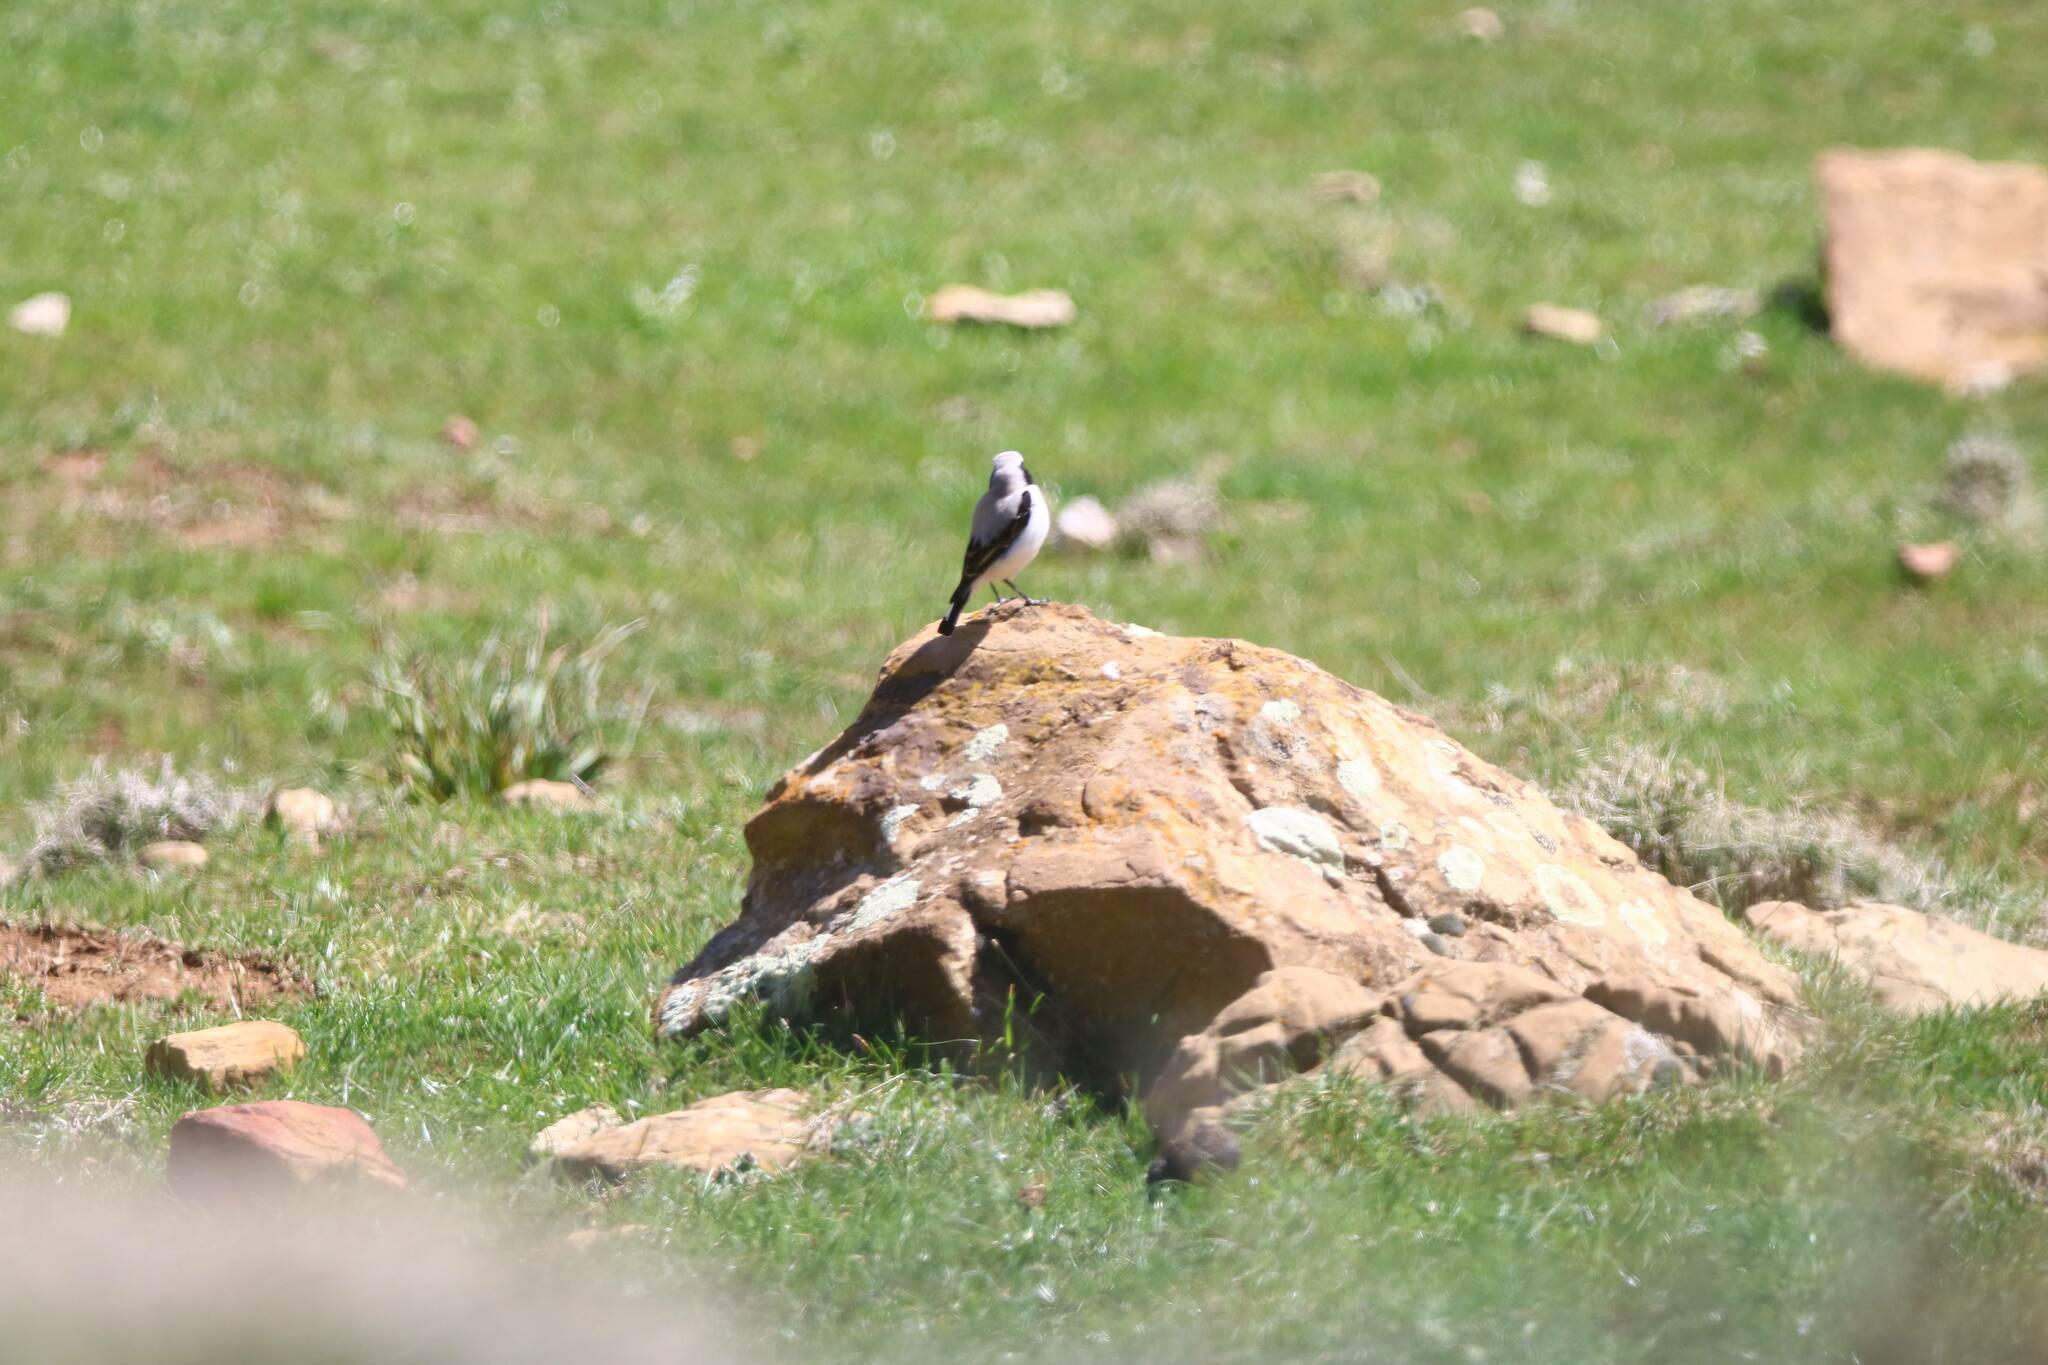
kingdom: Animalia
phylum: Chordata
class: Aves
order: Passeriformes
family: Muscicapidae
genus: Oenanthe
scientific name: Oenanthe oenanthe
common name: Northern wheatear
